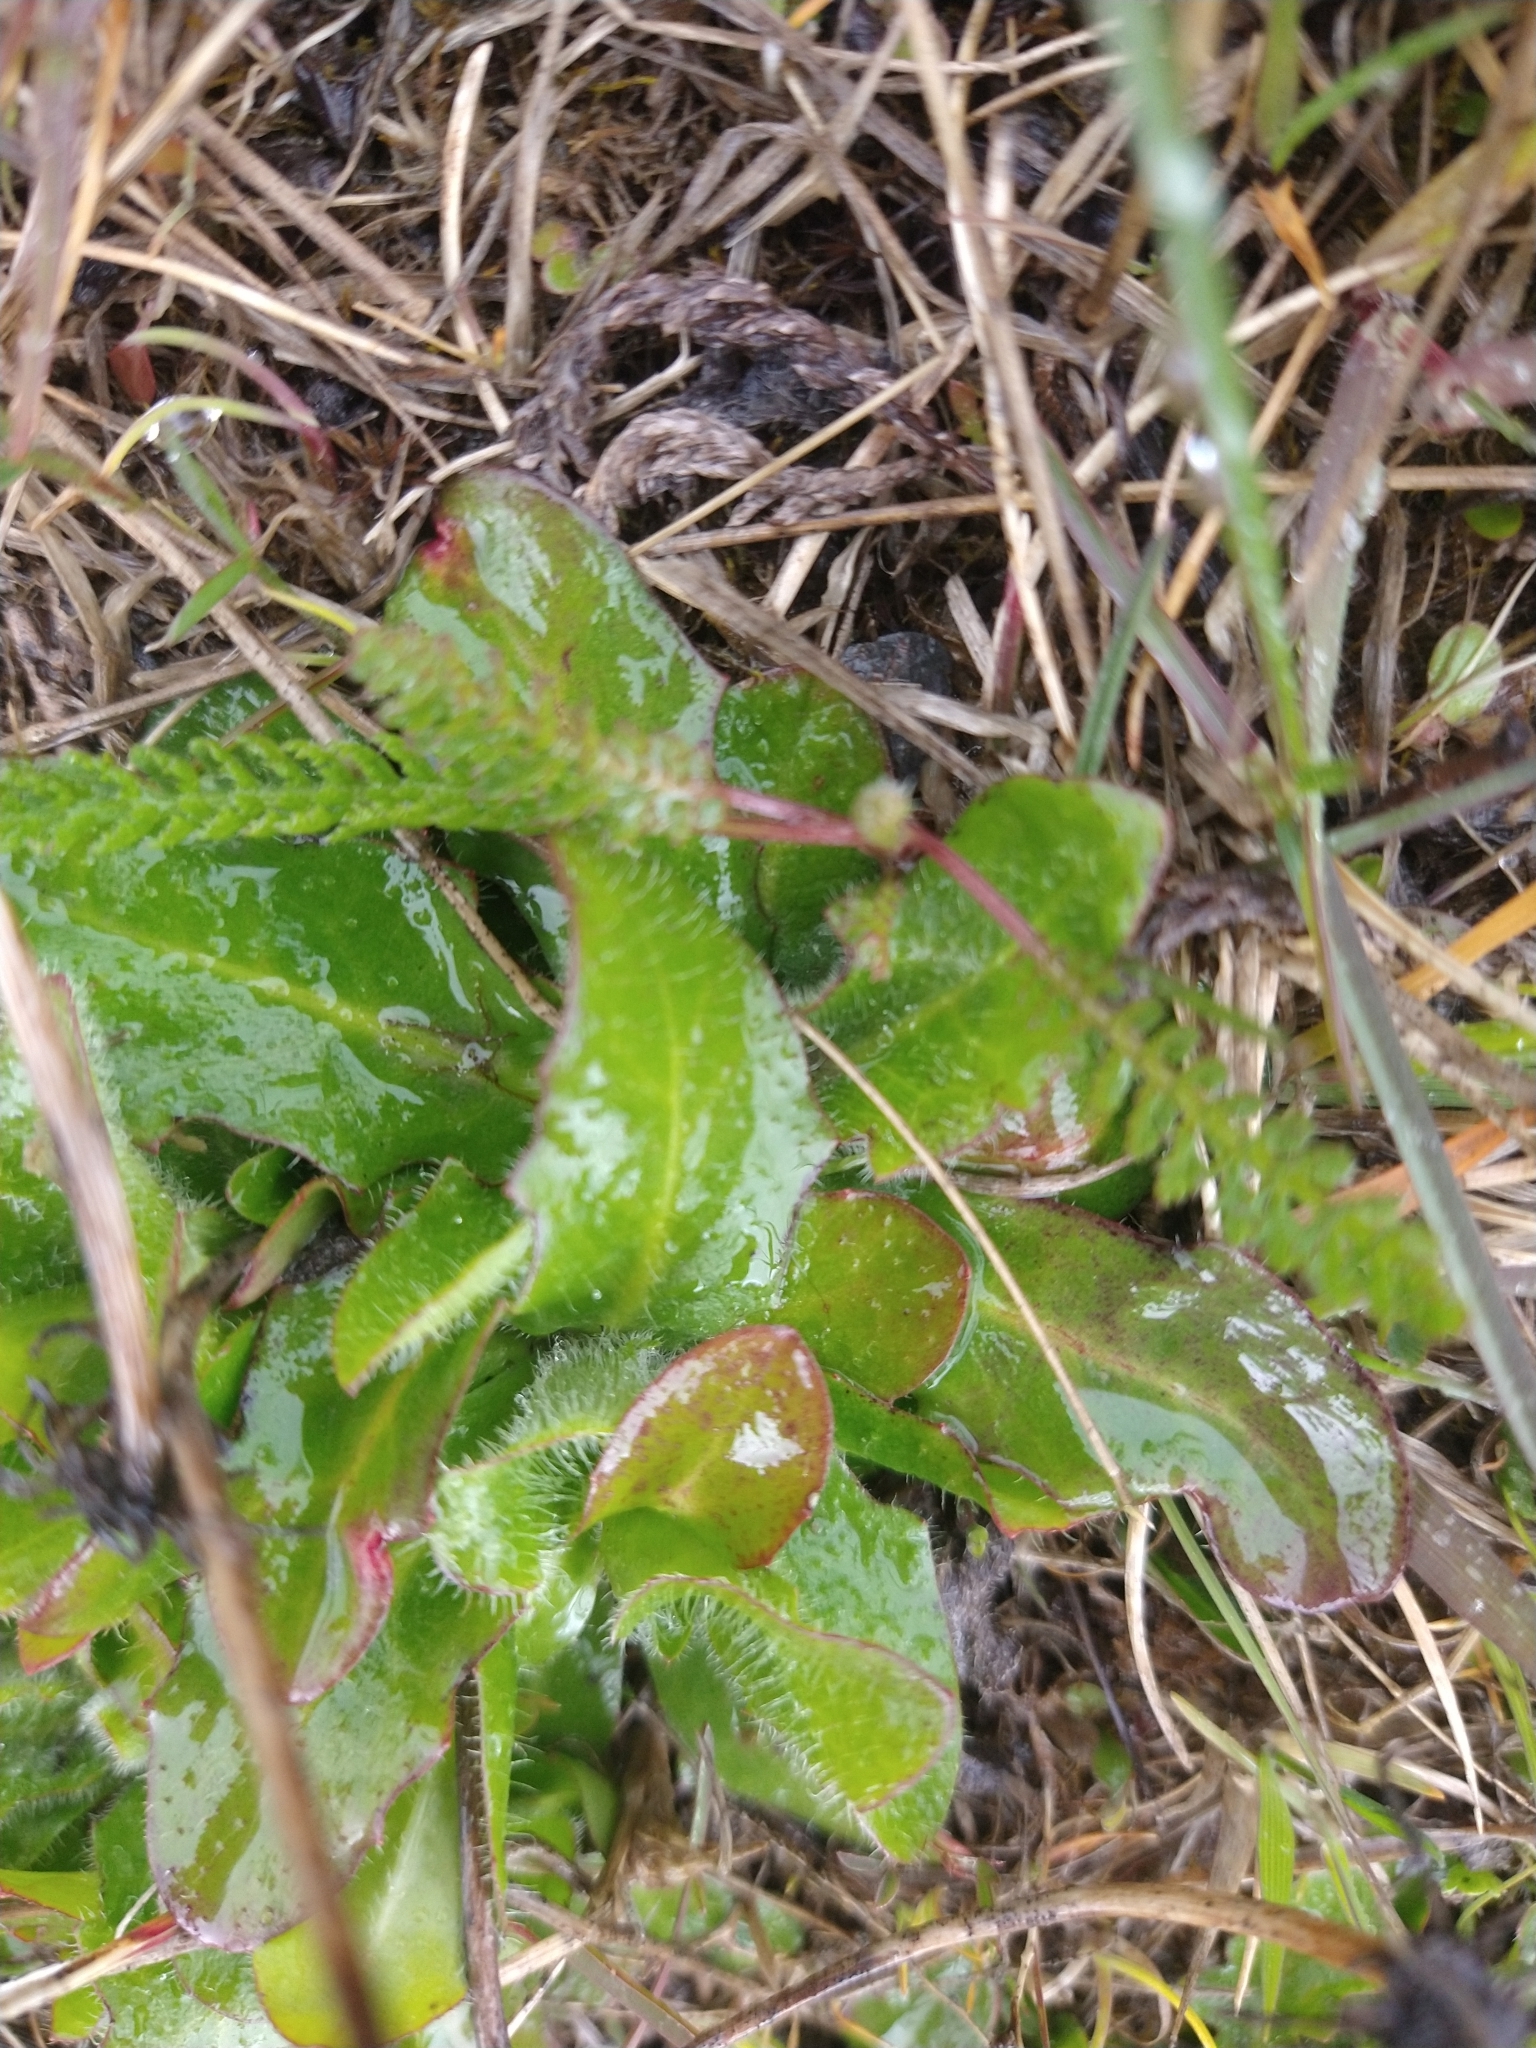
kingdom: Plantae
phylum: Tracheophyta
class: Magnoliopsida
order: Asterales
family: Asteraceae
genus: Hypochaeris
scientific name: Hypochaeris radicata
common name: Flatweed
